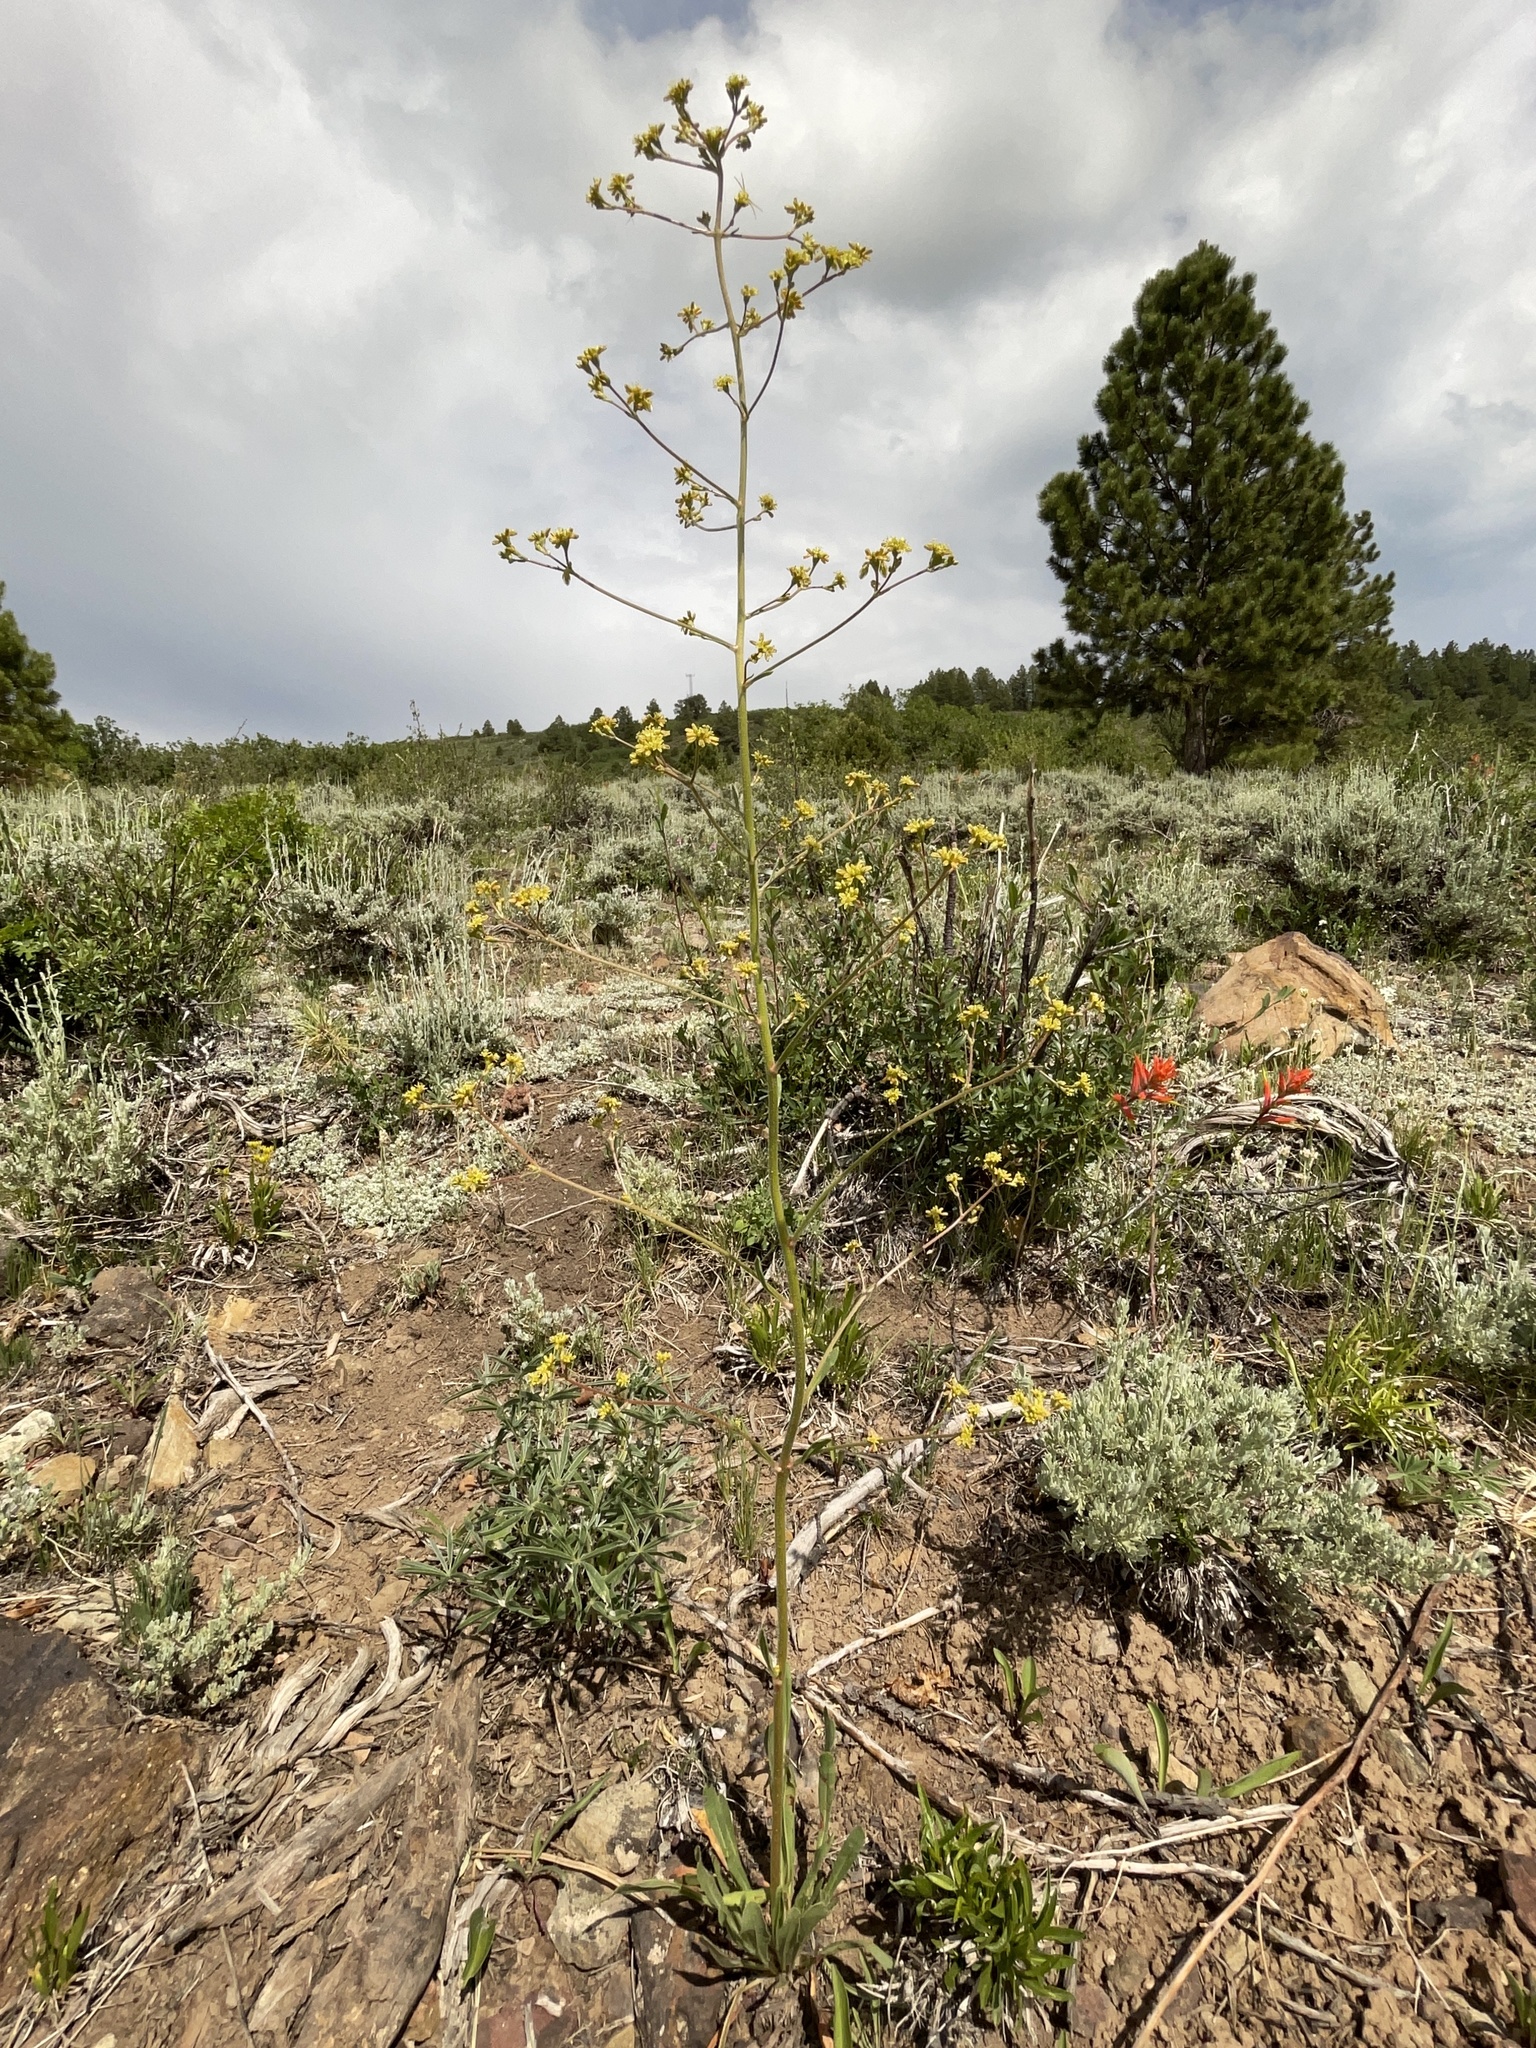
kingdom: Plantae
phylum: Tracheophyta
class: Magnoliopsida
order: Caryophyllales
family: Polygonaceae
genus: Eriogonum
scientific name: Eriogonum alatum
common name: Winged eriogonum
